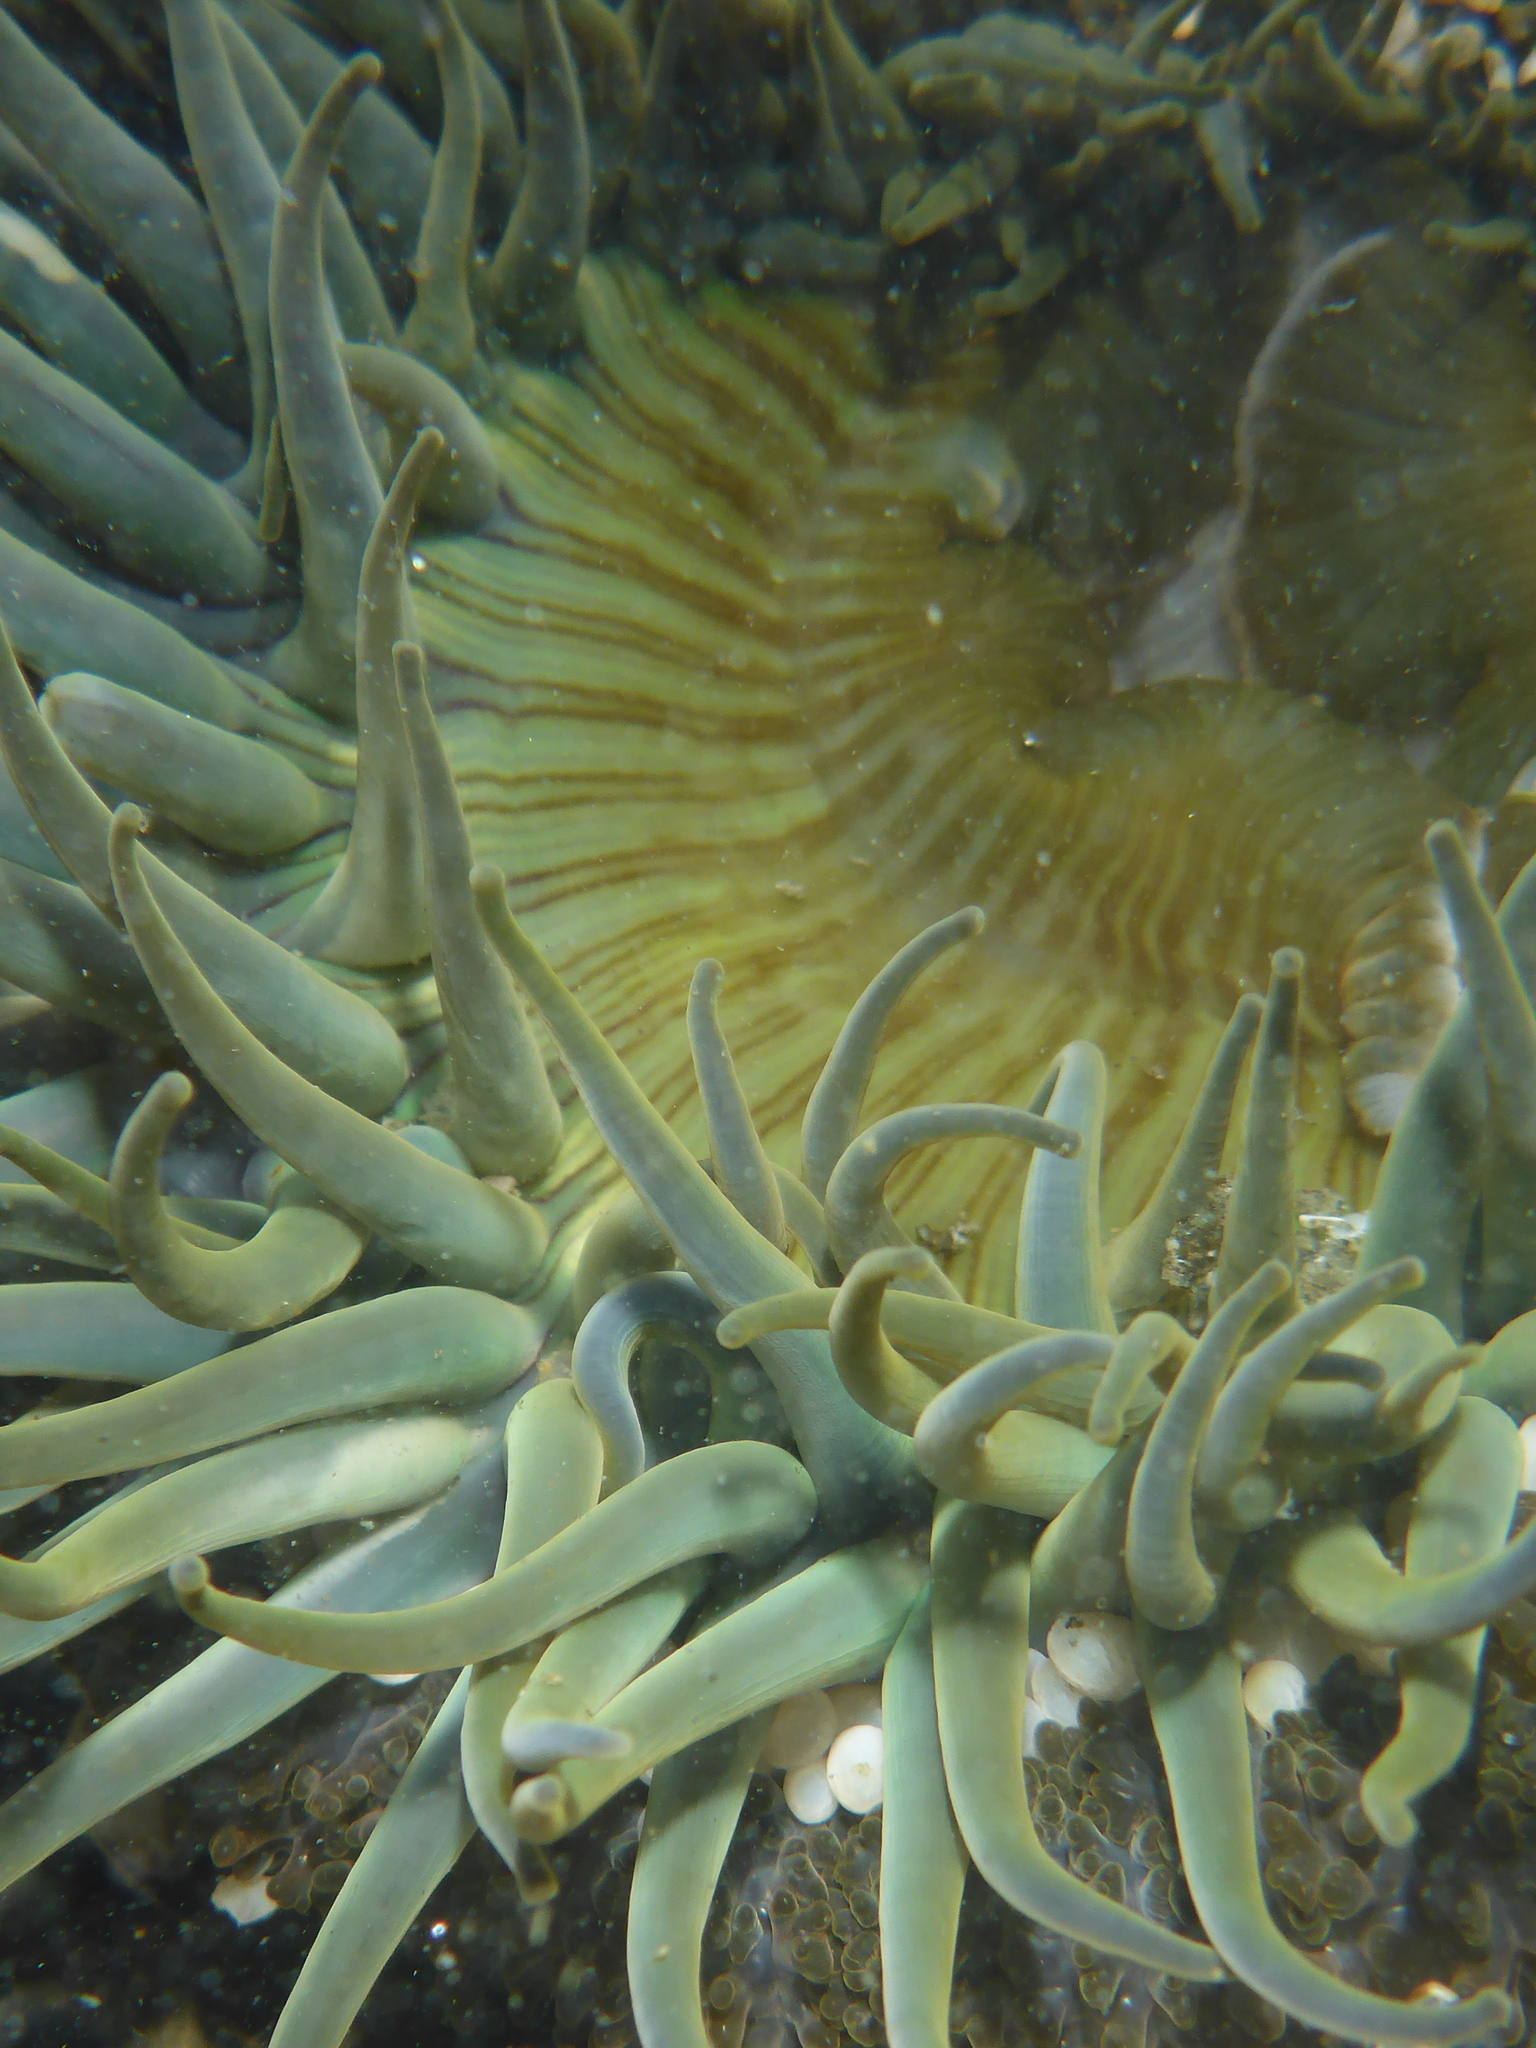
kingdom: Animalia
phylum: Cnidaria
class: Anthozoa
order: Actiniaria
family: Actiniidae
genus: Anthopleura
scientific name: Anthopleura sola
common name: Sun anemone
